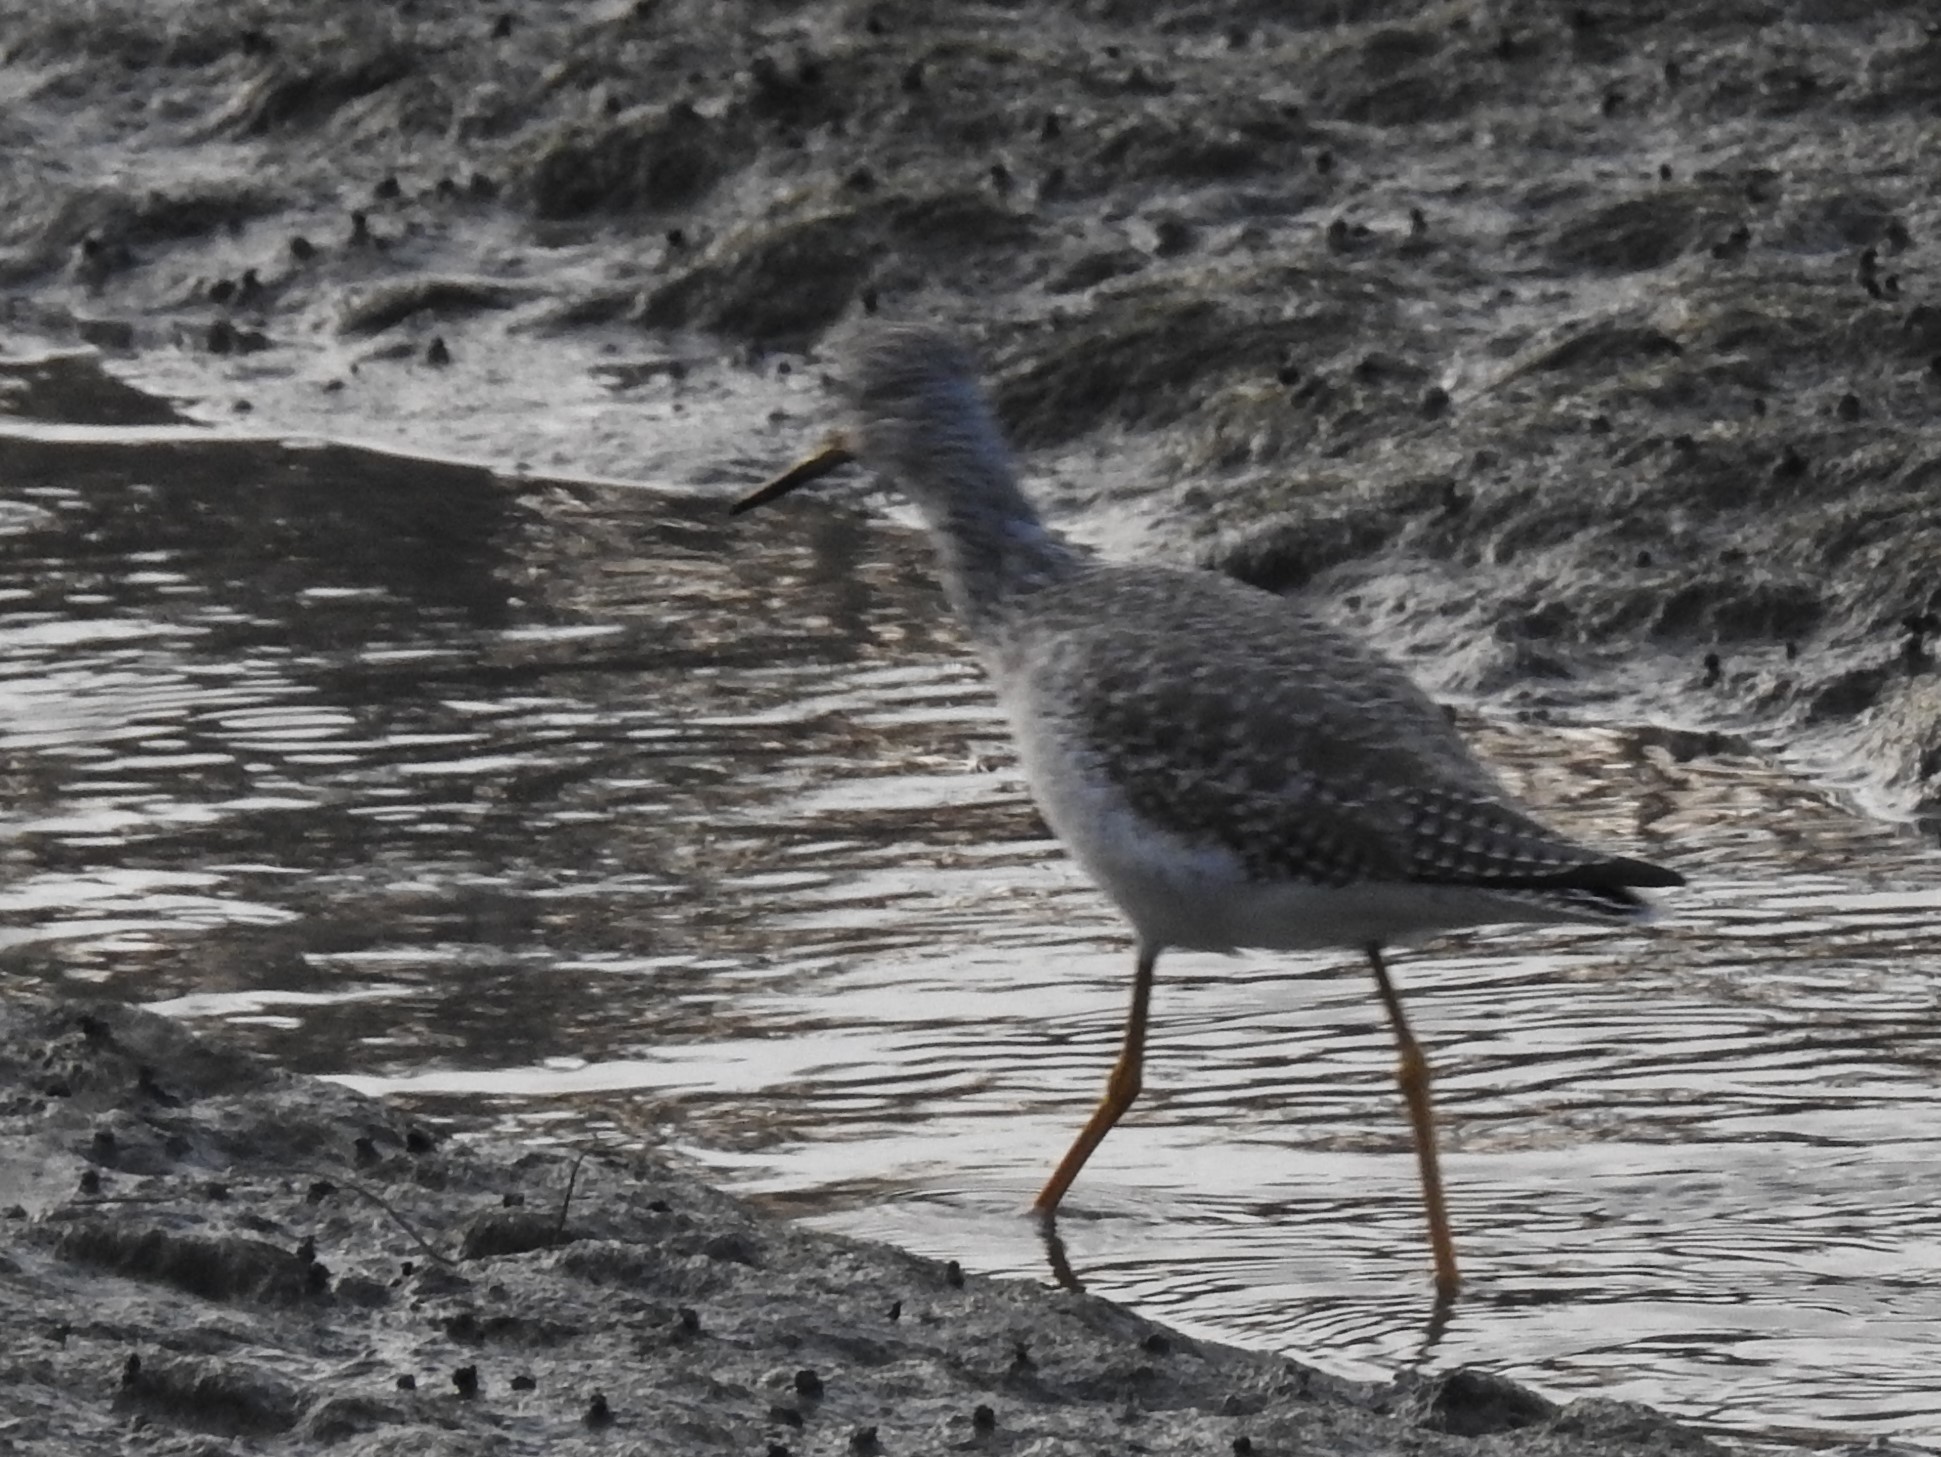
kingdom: Animalia
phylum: Chordata
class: Aves
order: Charadriiformes
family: Scolopacidae
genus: Tringa
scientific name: Tringa melanoleuca
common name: Greater yellowlegs
